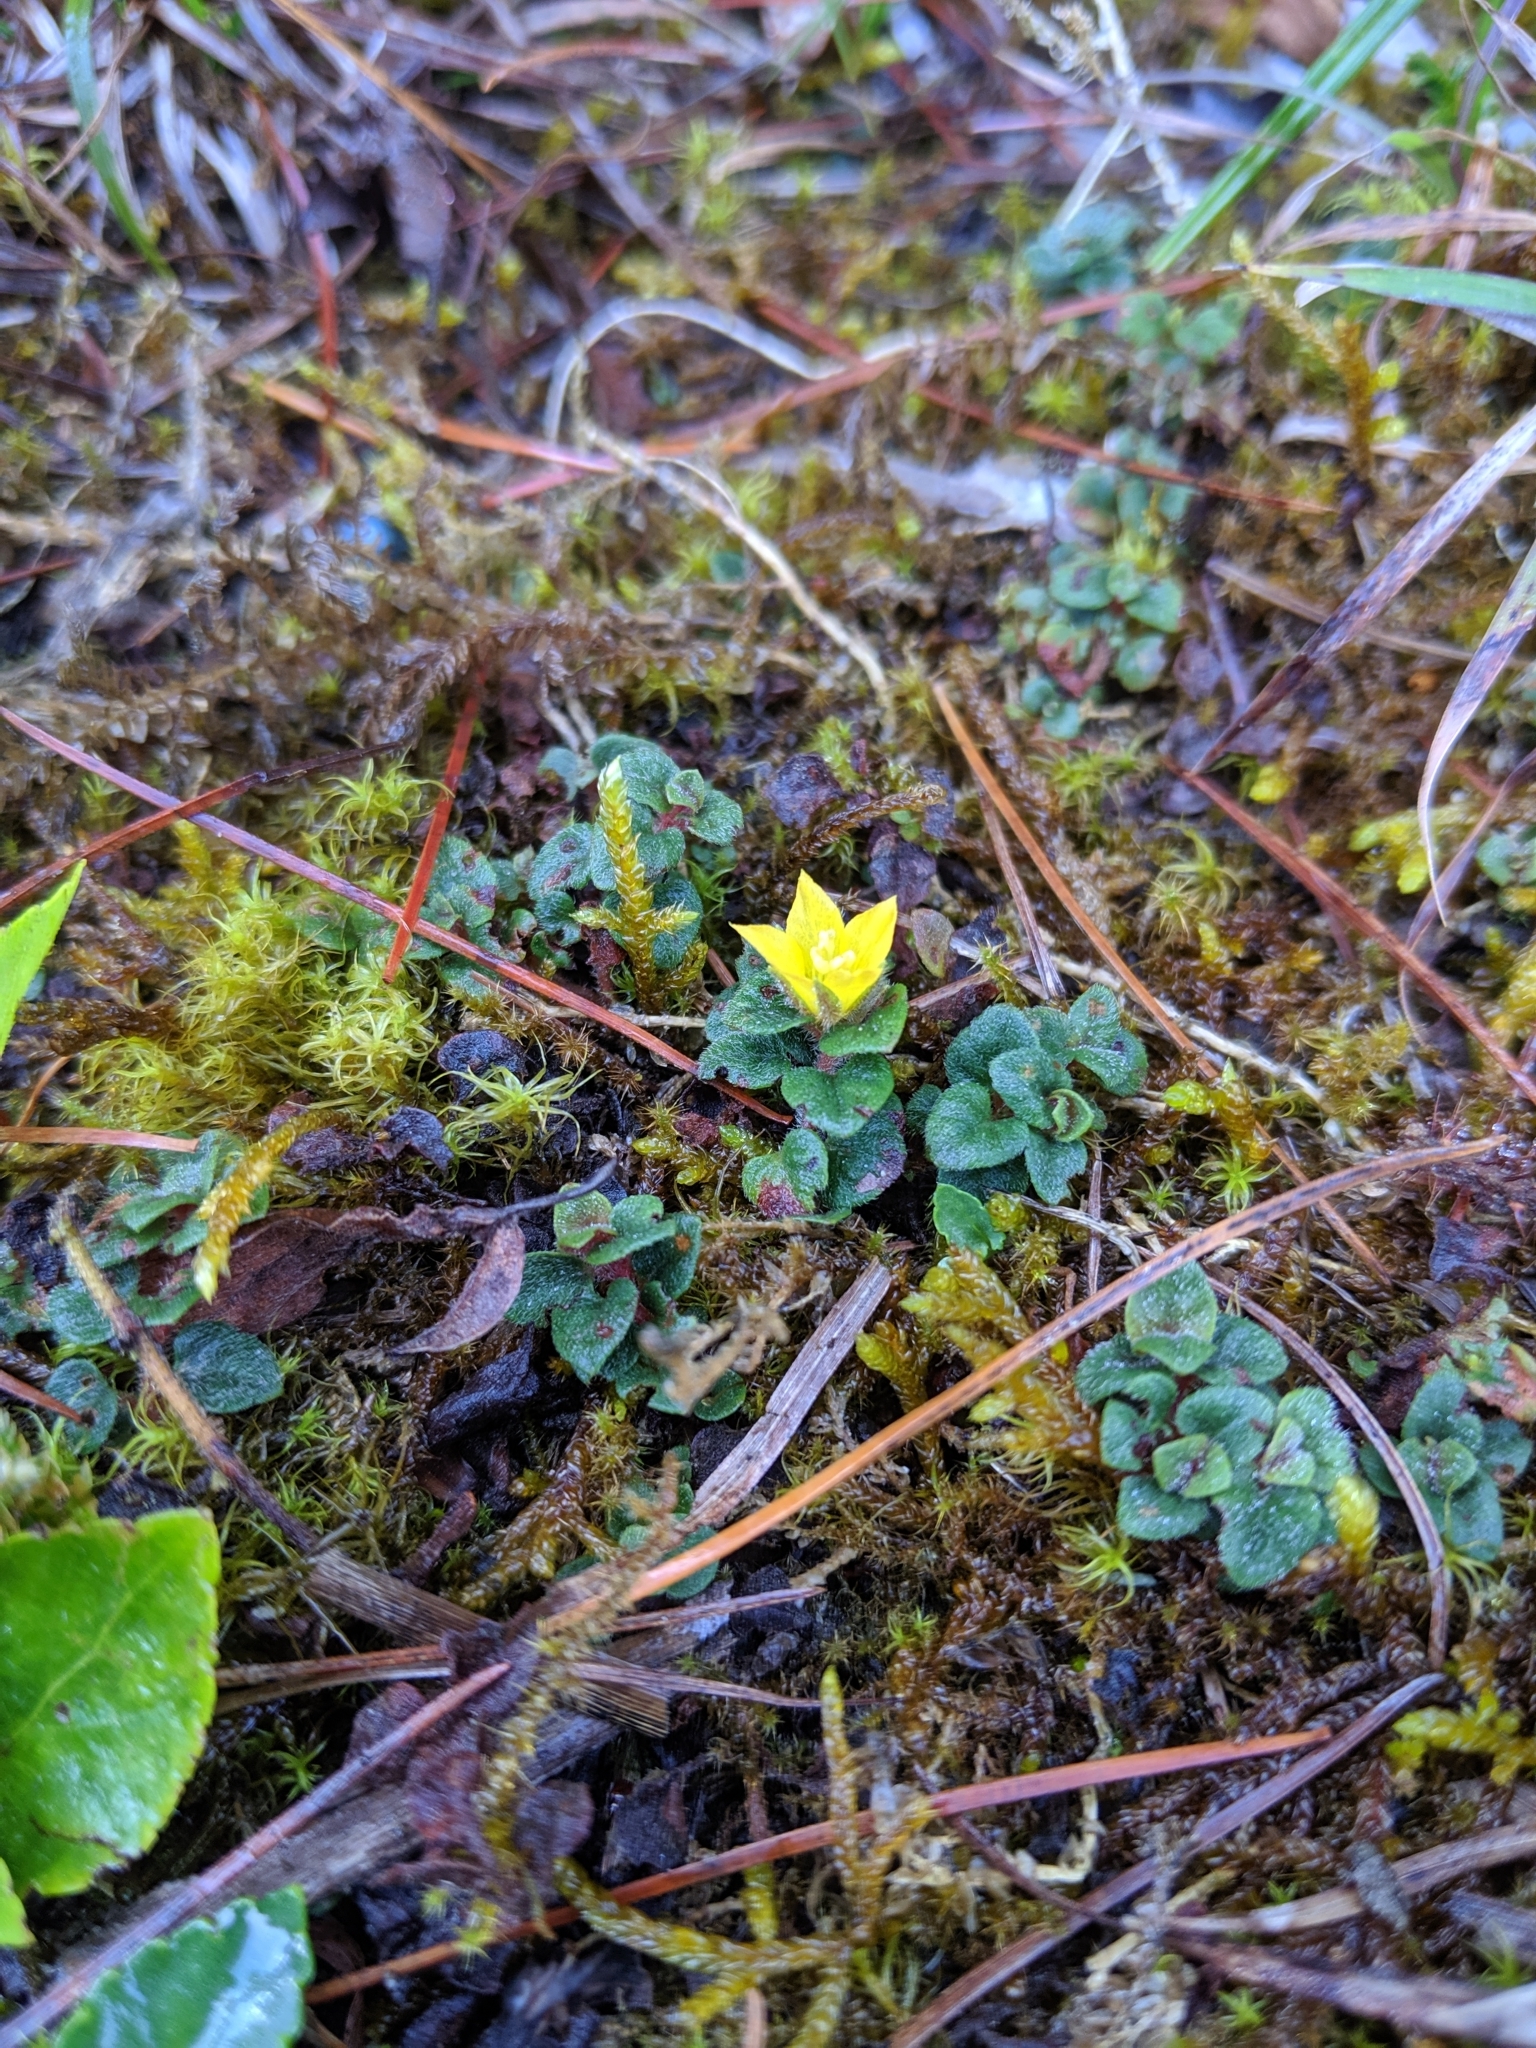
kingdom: Plantae
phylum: Tracheophyta
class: Magnoliopsida
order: Ericales
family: Primulaceae
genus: Lysimachia
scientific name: Lysimachia congestiflora
